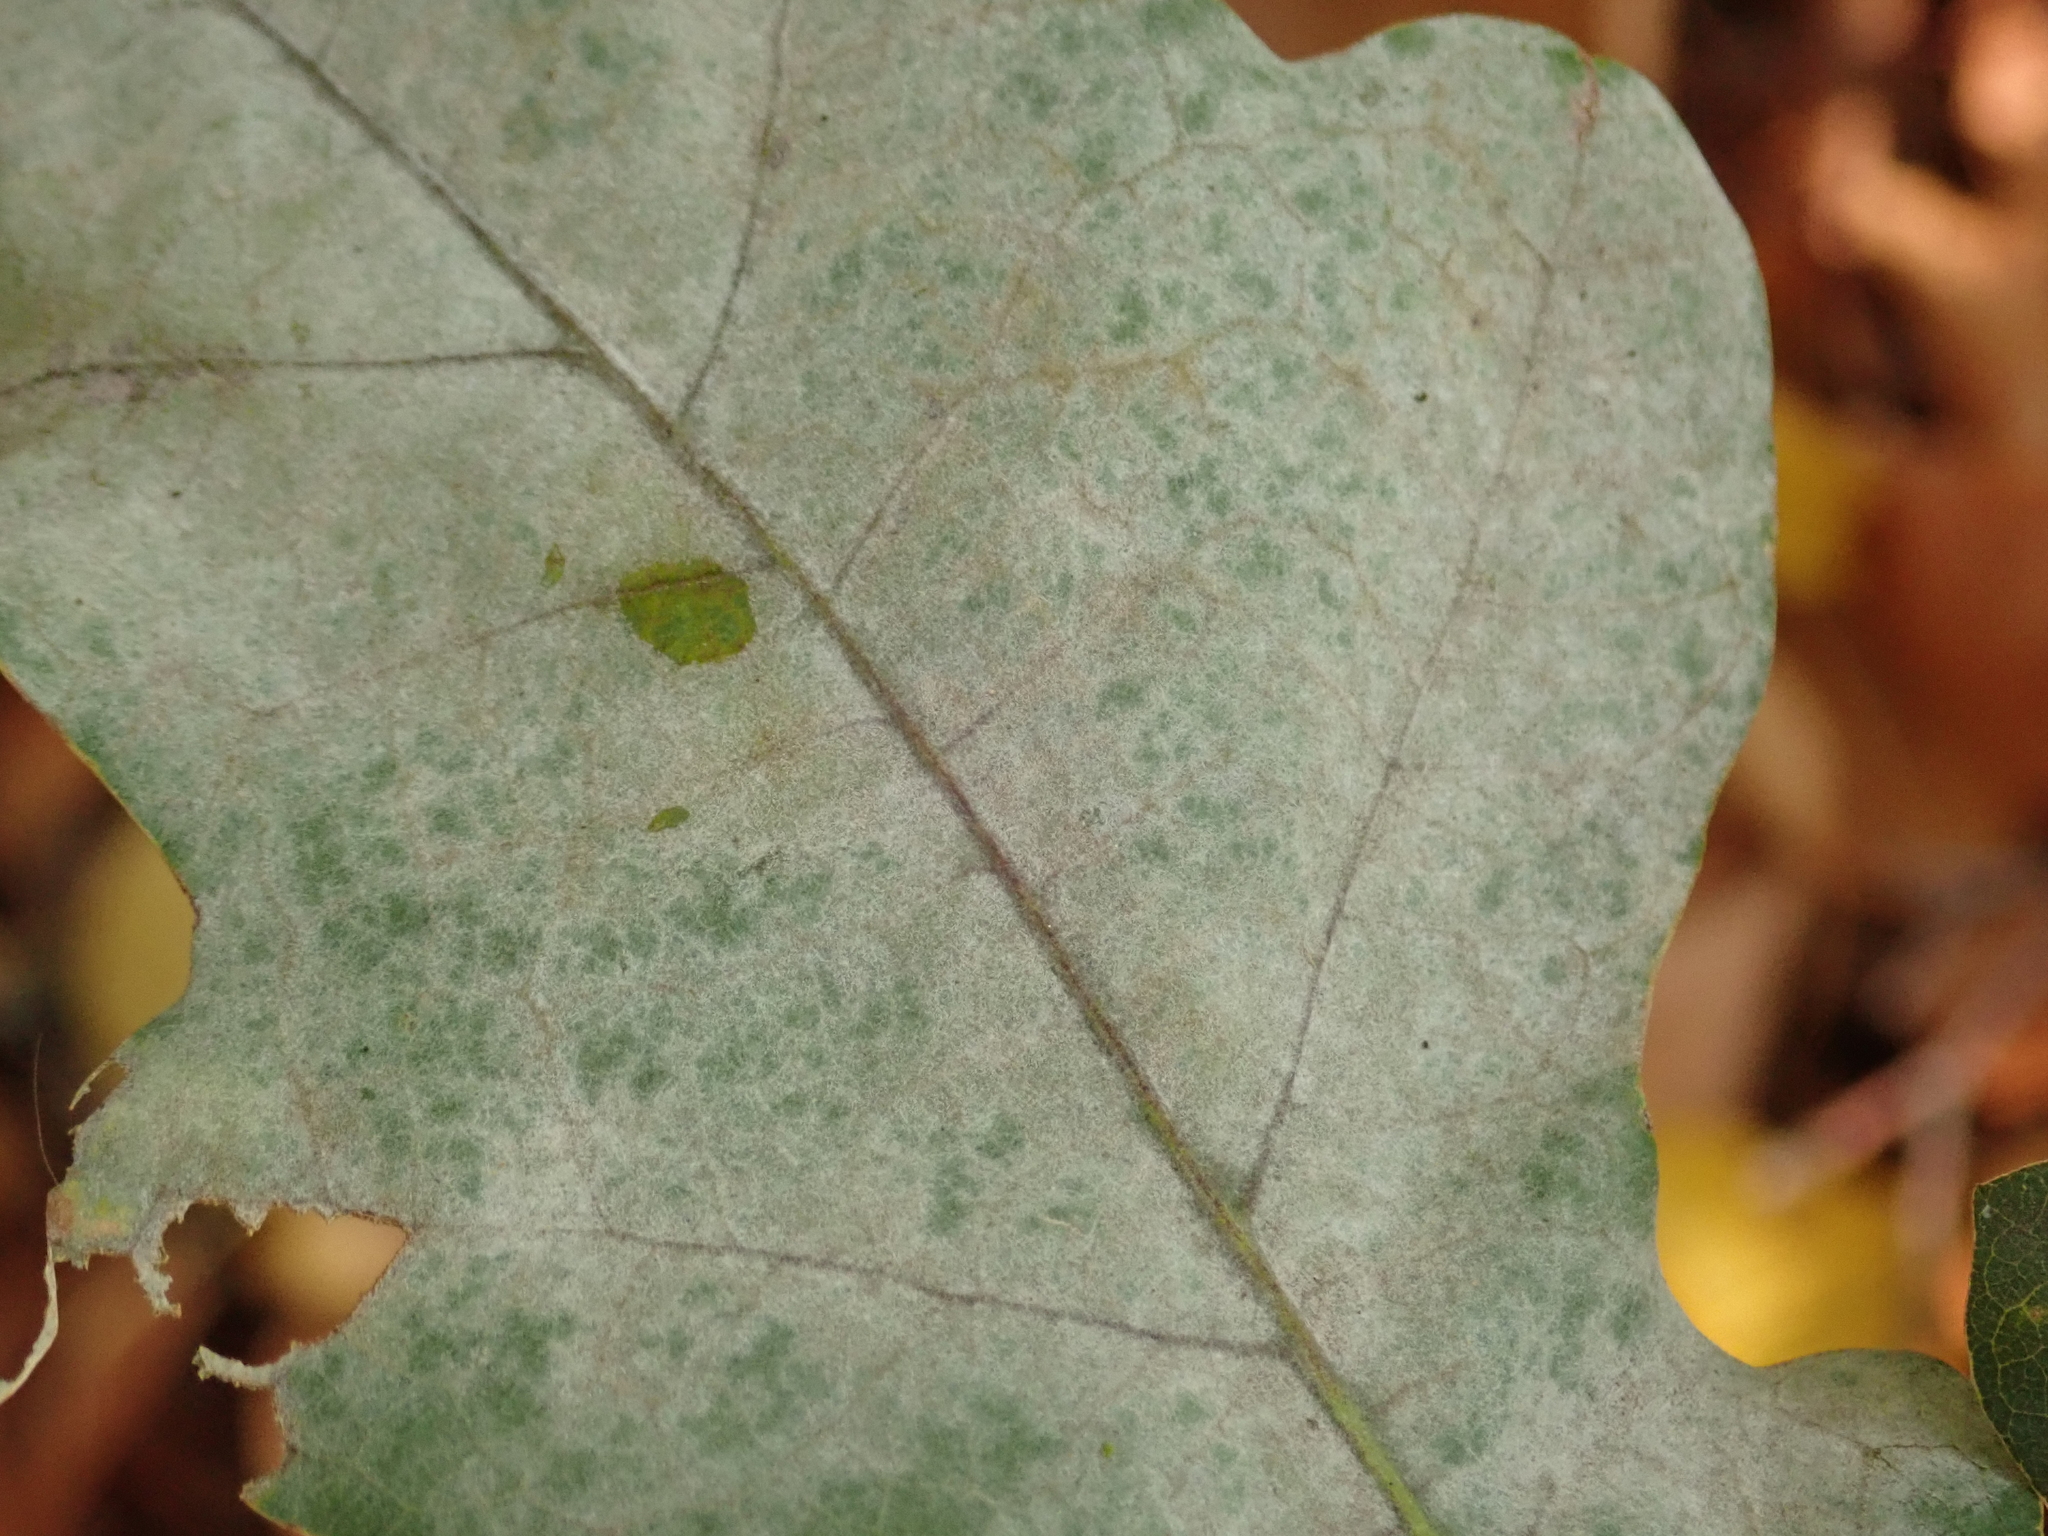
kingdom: Fungi
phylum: Ascomycota
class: Leotiomycetes
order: Helotiales
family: Erysiphaceae
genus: Erysiphe
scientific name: Erysiphe
